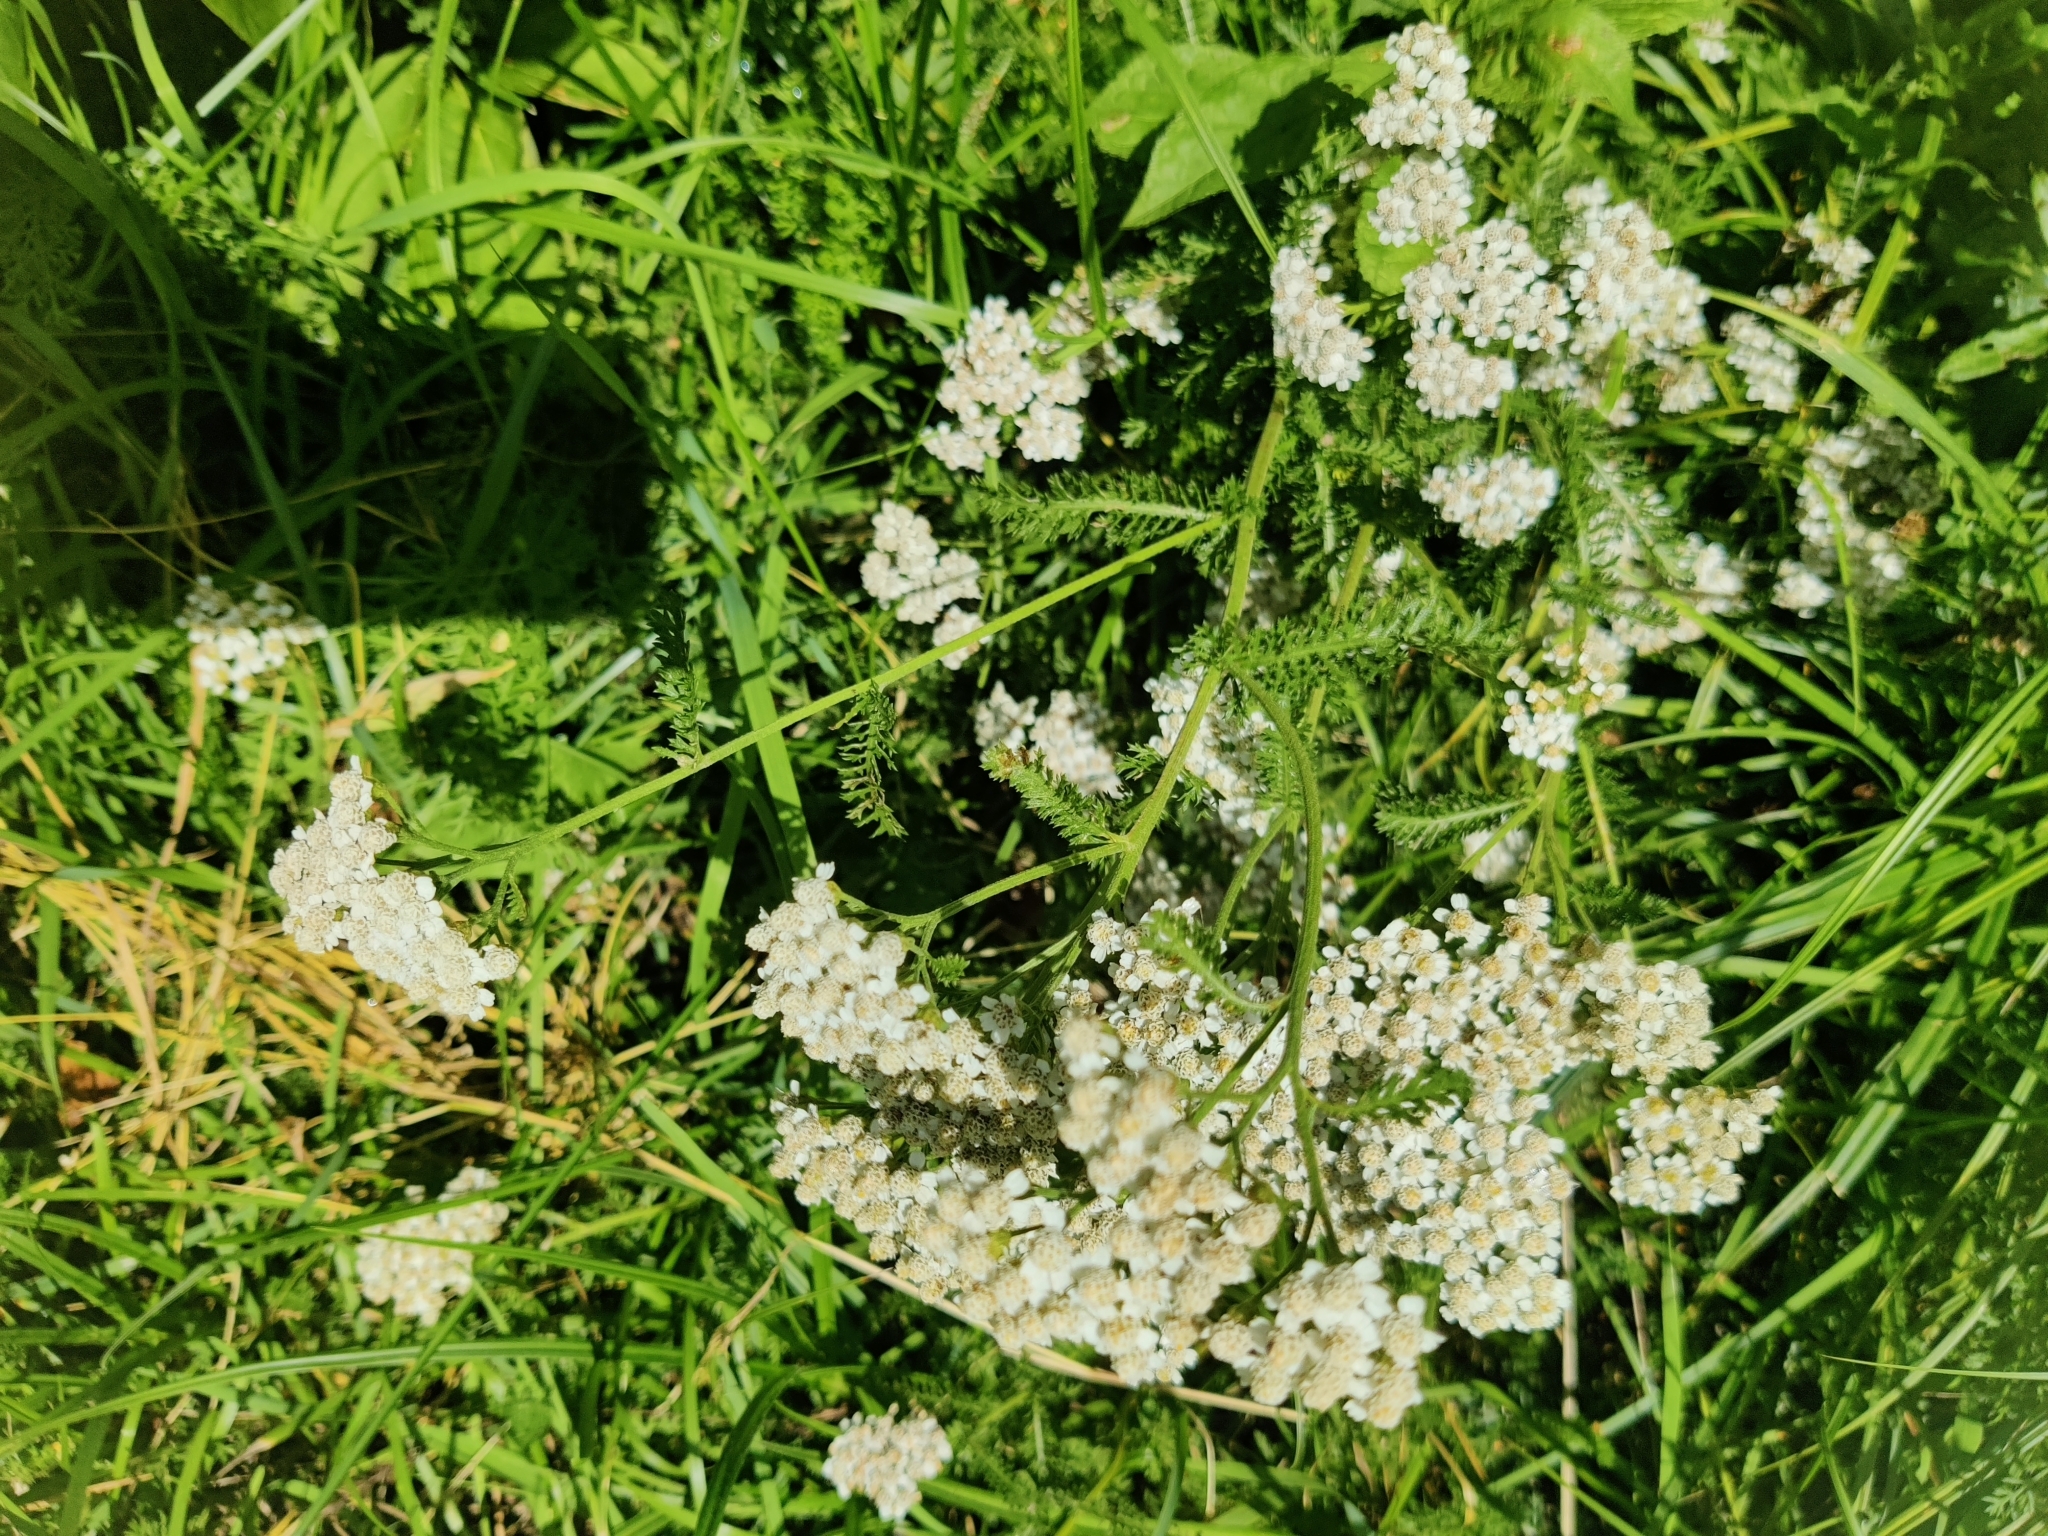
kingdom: Plantae
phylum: Tracheophyta
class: Magnoliopsida
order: Asterales
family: Asteraceae
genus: Achillea
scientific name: Achillea millefolium
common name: Yarrow
